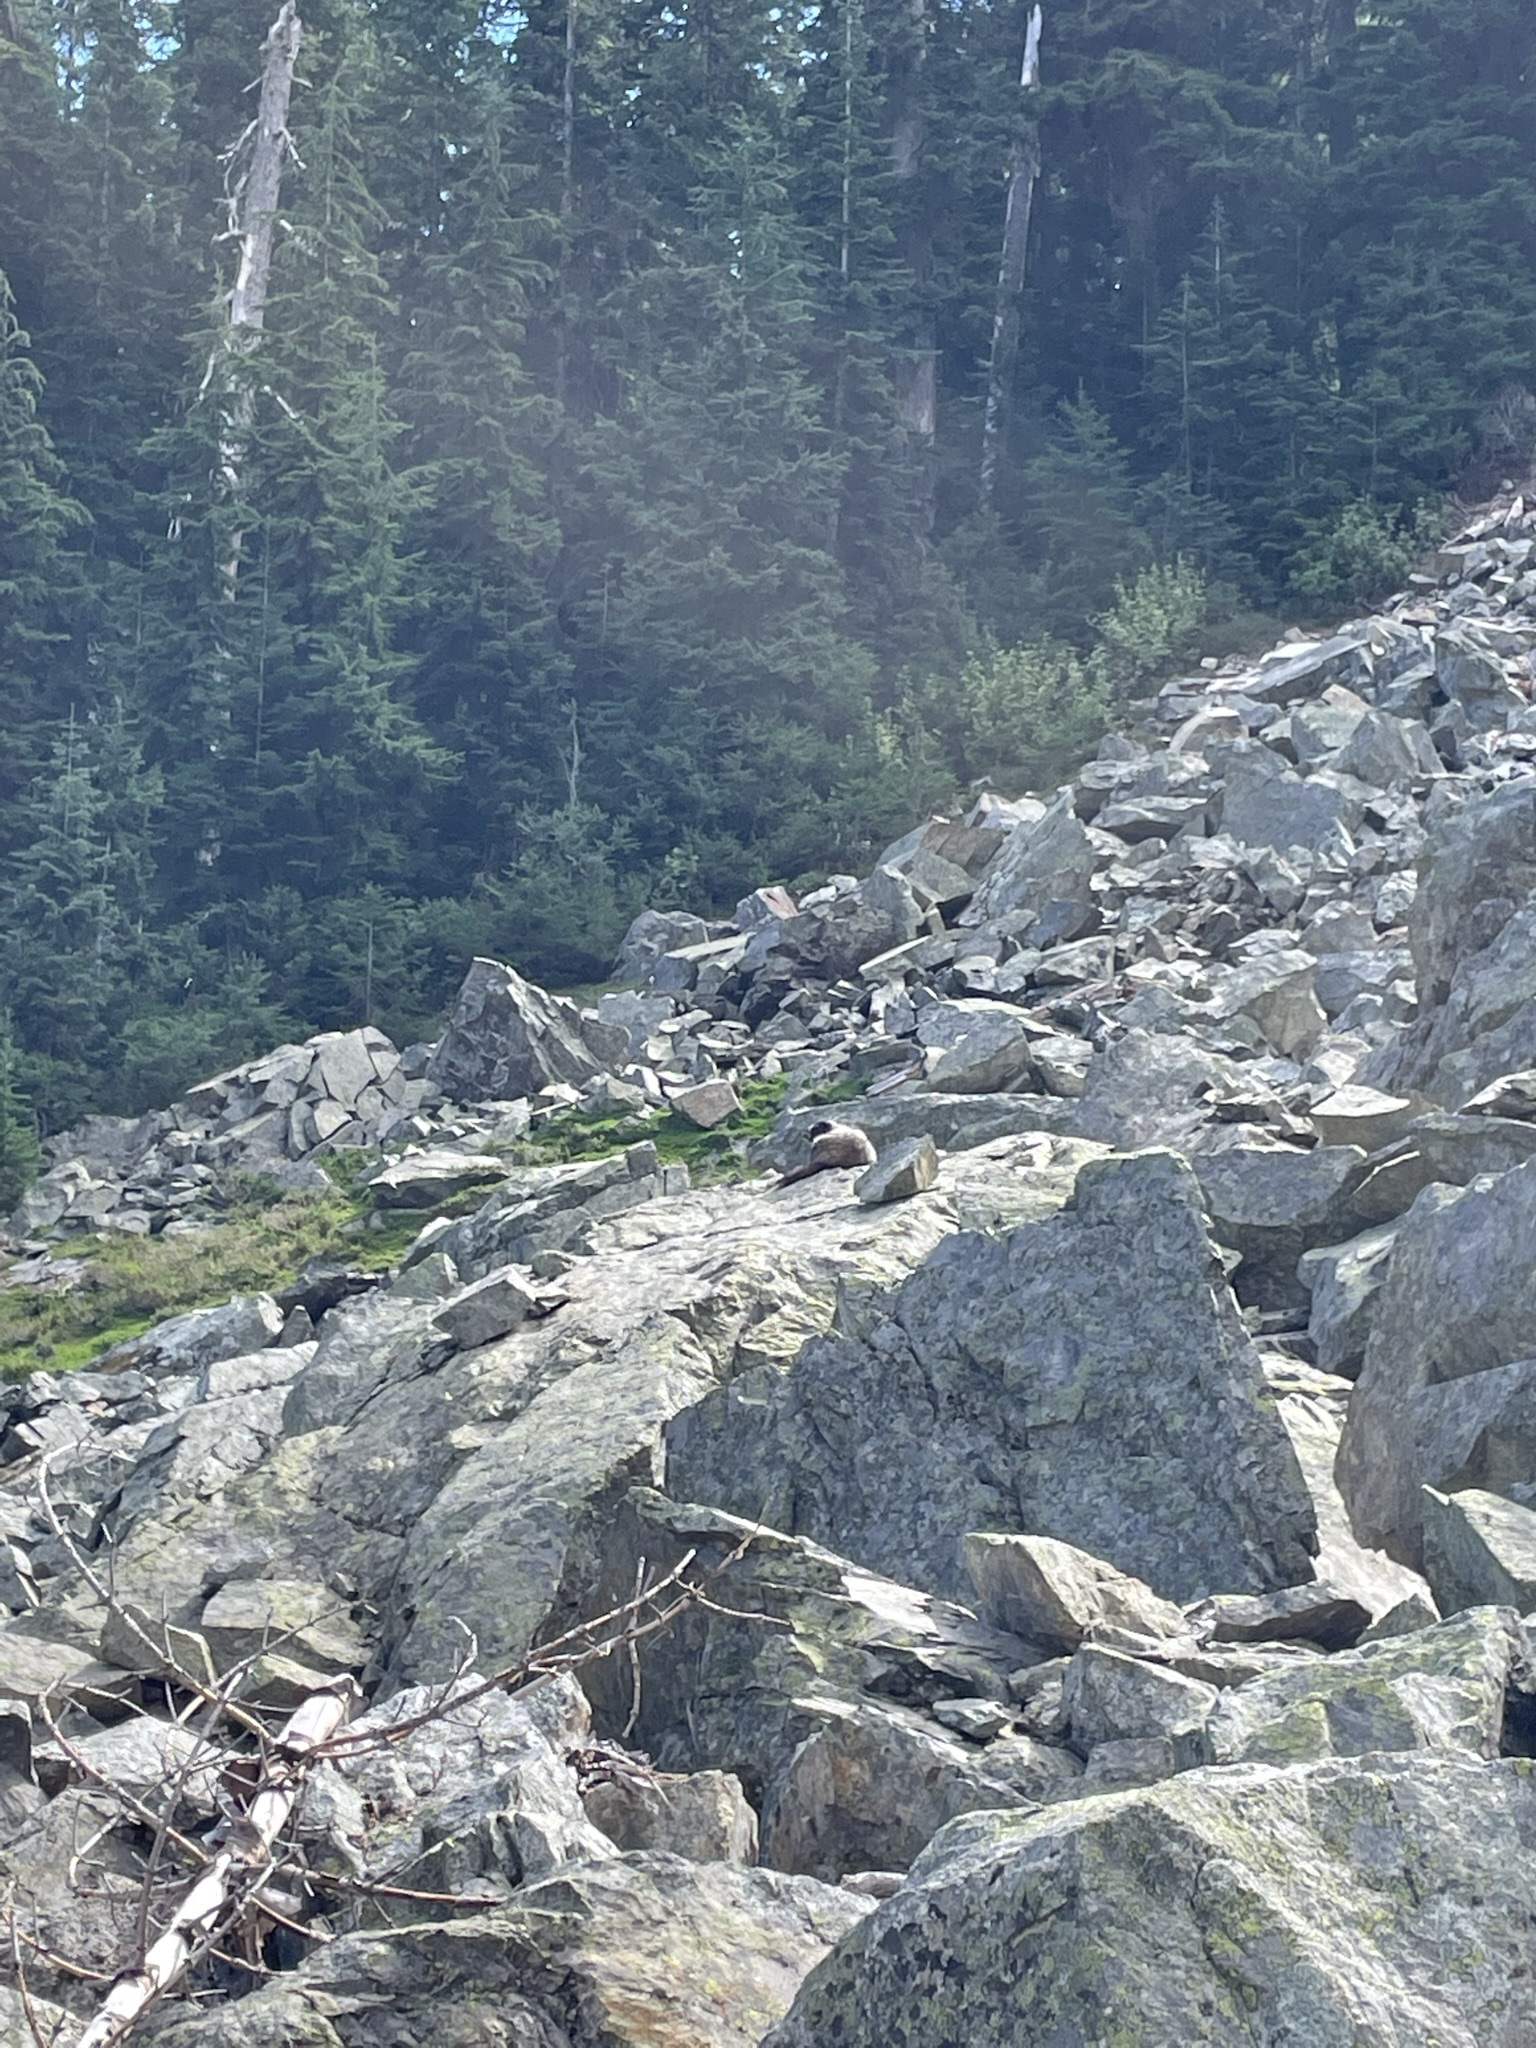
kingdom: Animalia
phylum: Chordata
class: Mammalia
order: Rodentia
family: Sciuridae
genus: Marmota
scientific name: Marmota caligata
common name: Hoary marmot
